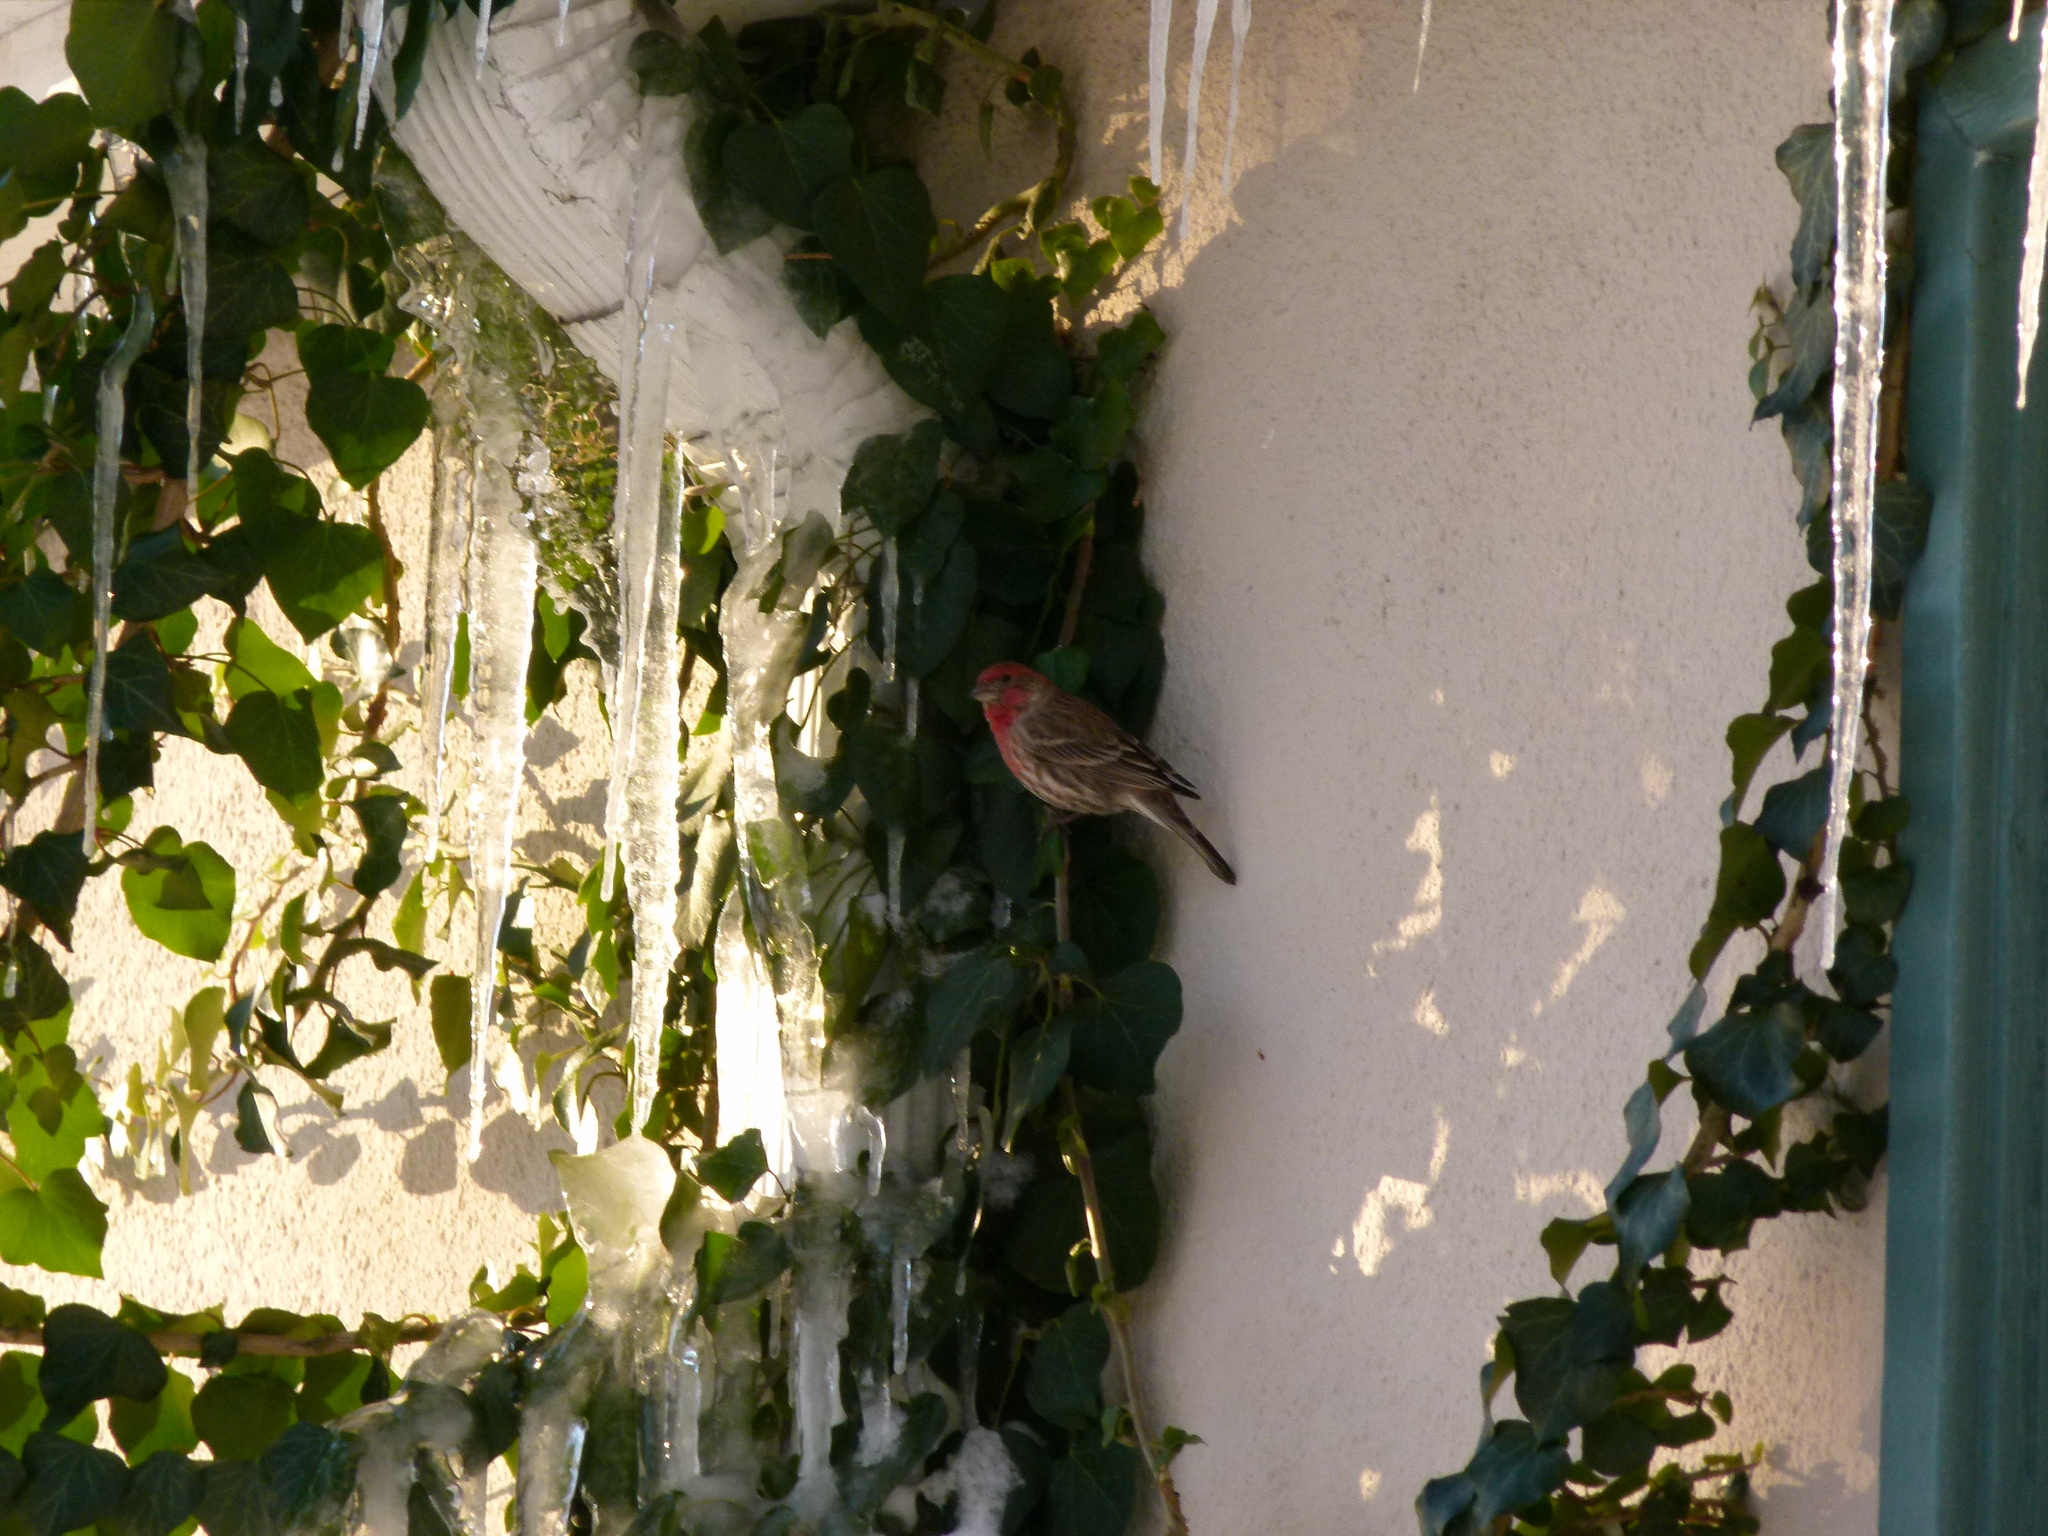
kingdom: Animalia
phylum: Chordata
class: Aves
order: Passeriformes
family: Fringillidae
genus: Haemorhous
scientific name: Haemorhous mexicanus
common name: House finch
